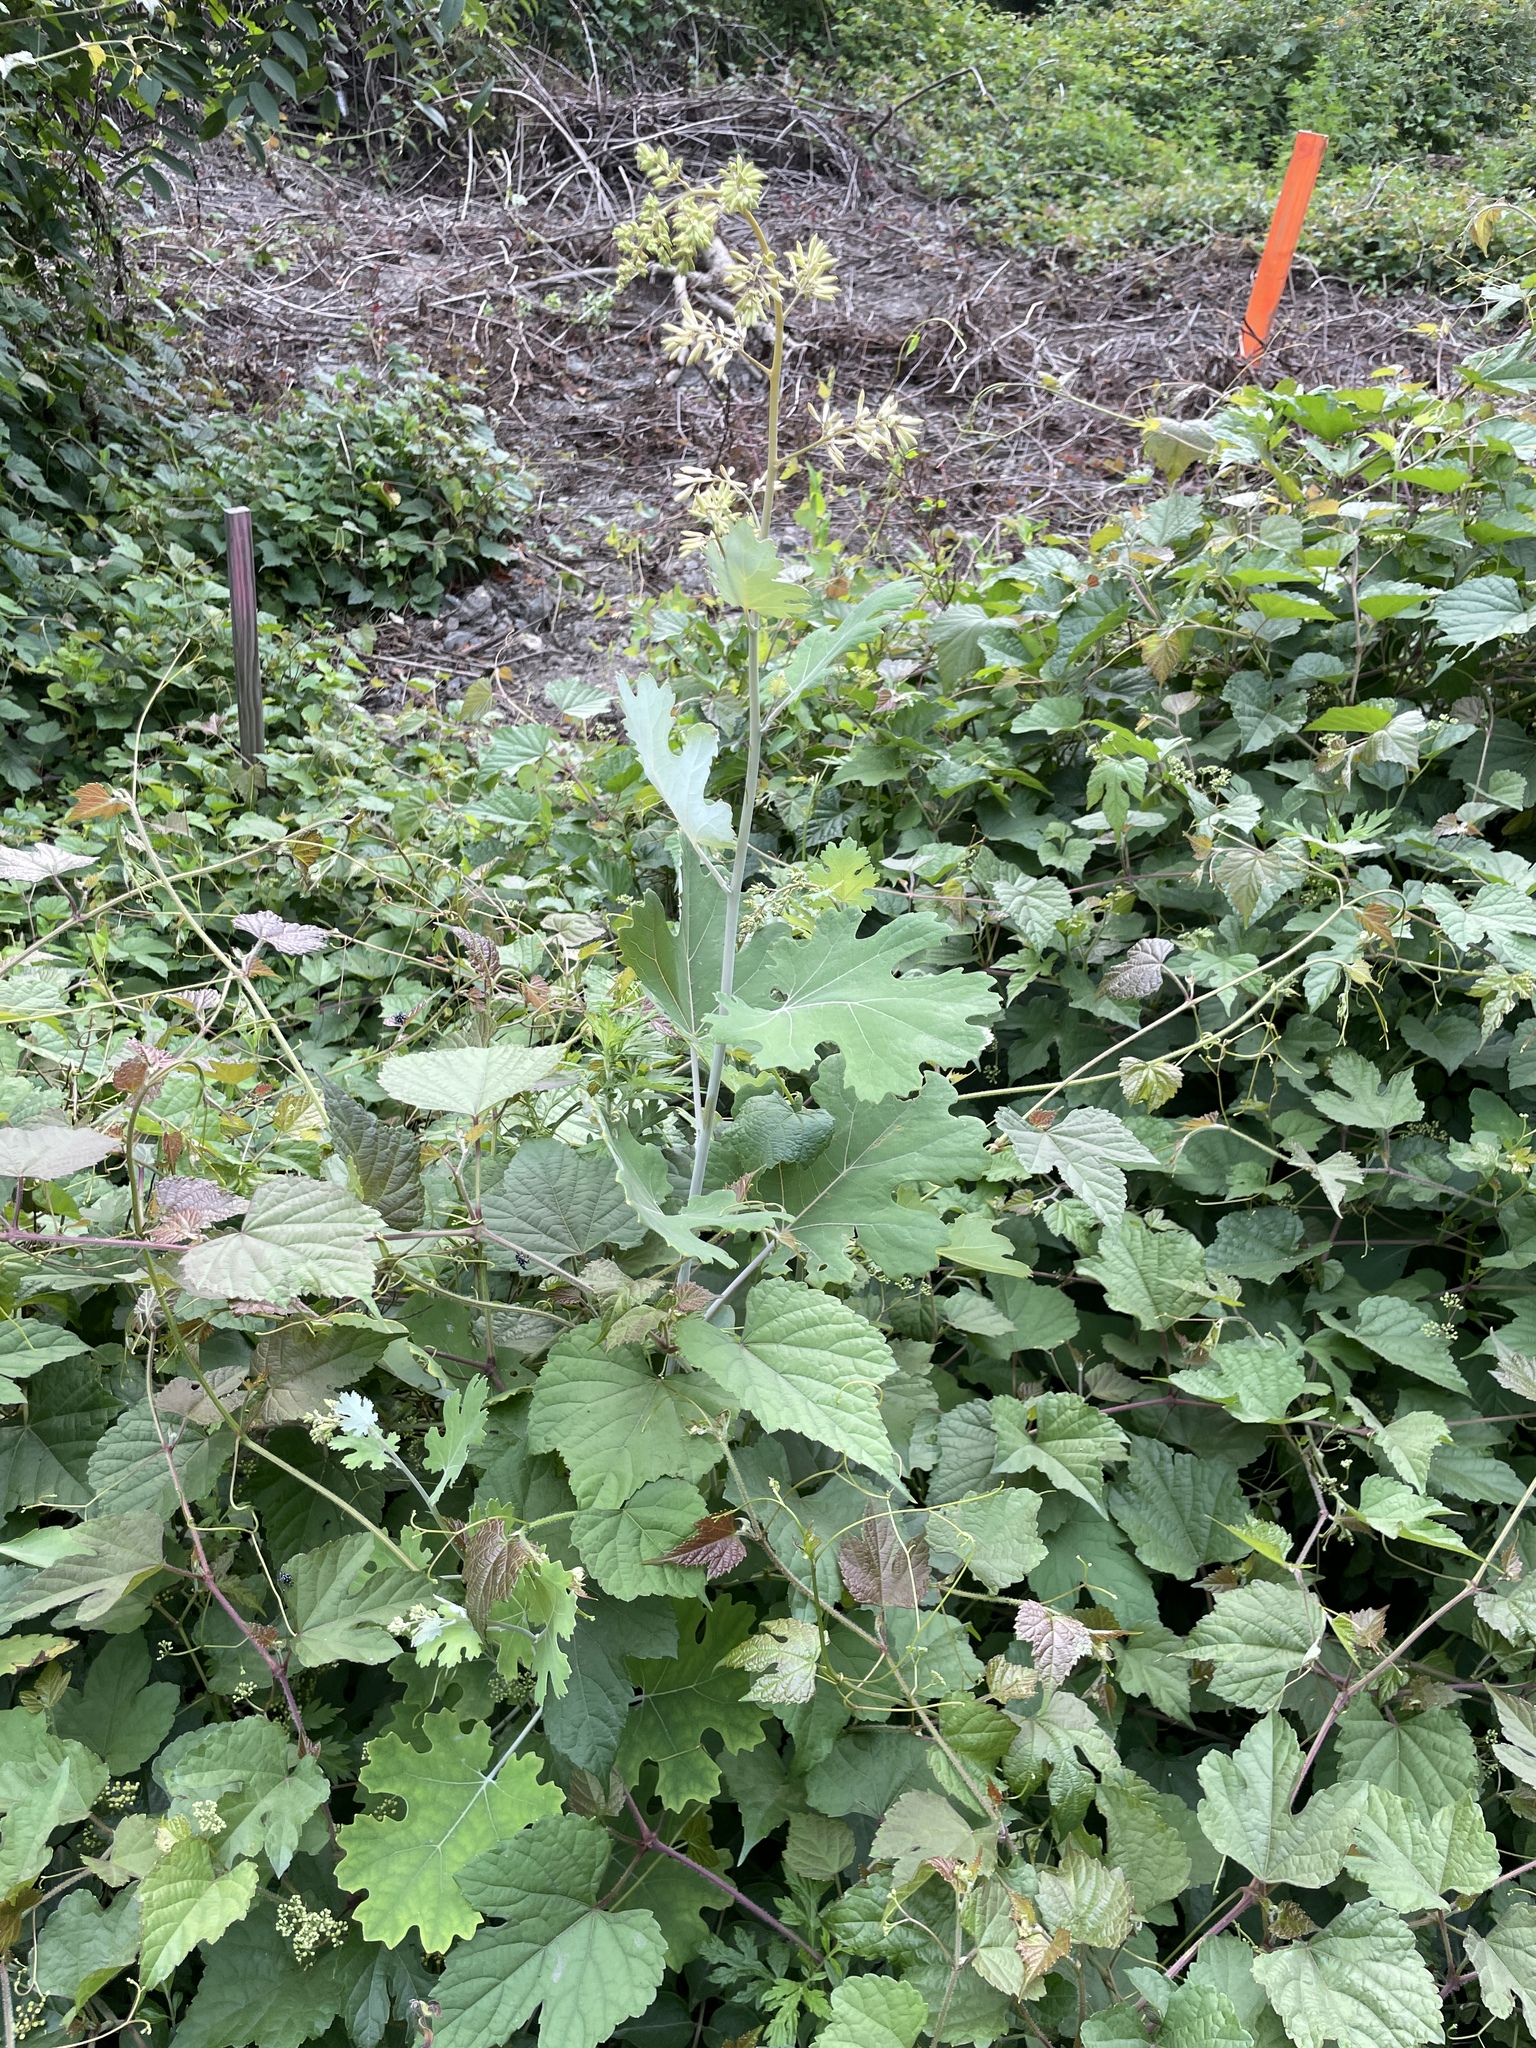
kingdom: Plantae
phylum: Tracheophyta
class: Magnoliopsida
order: Ranunculales
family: Papaveraceae
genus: Macleaya
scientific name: Macleaya cordata
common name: Plume poppy
